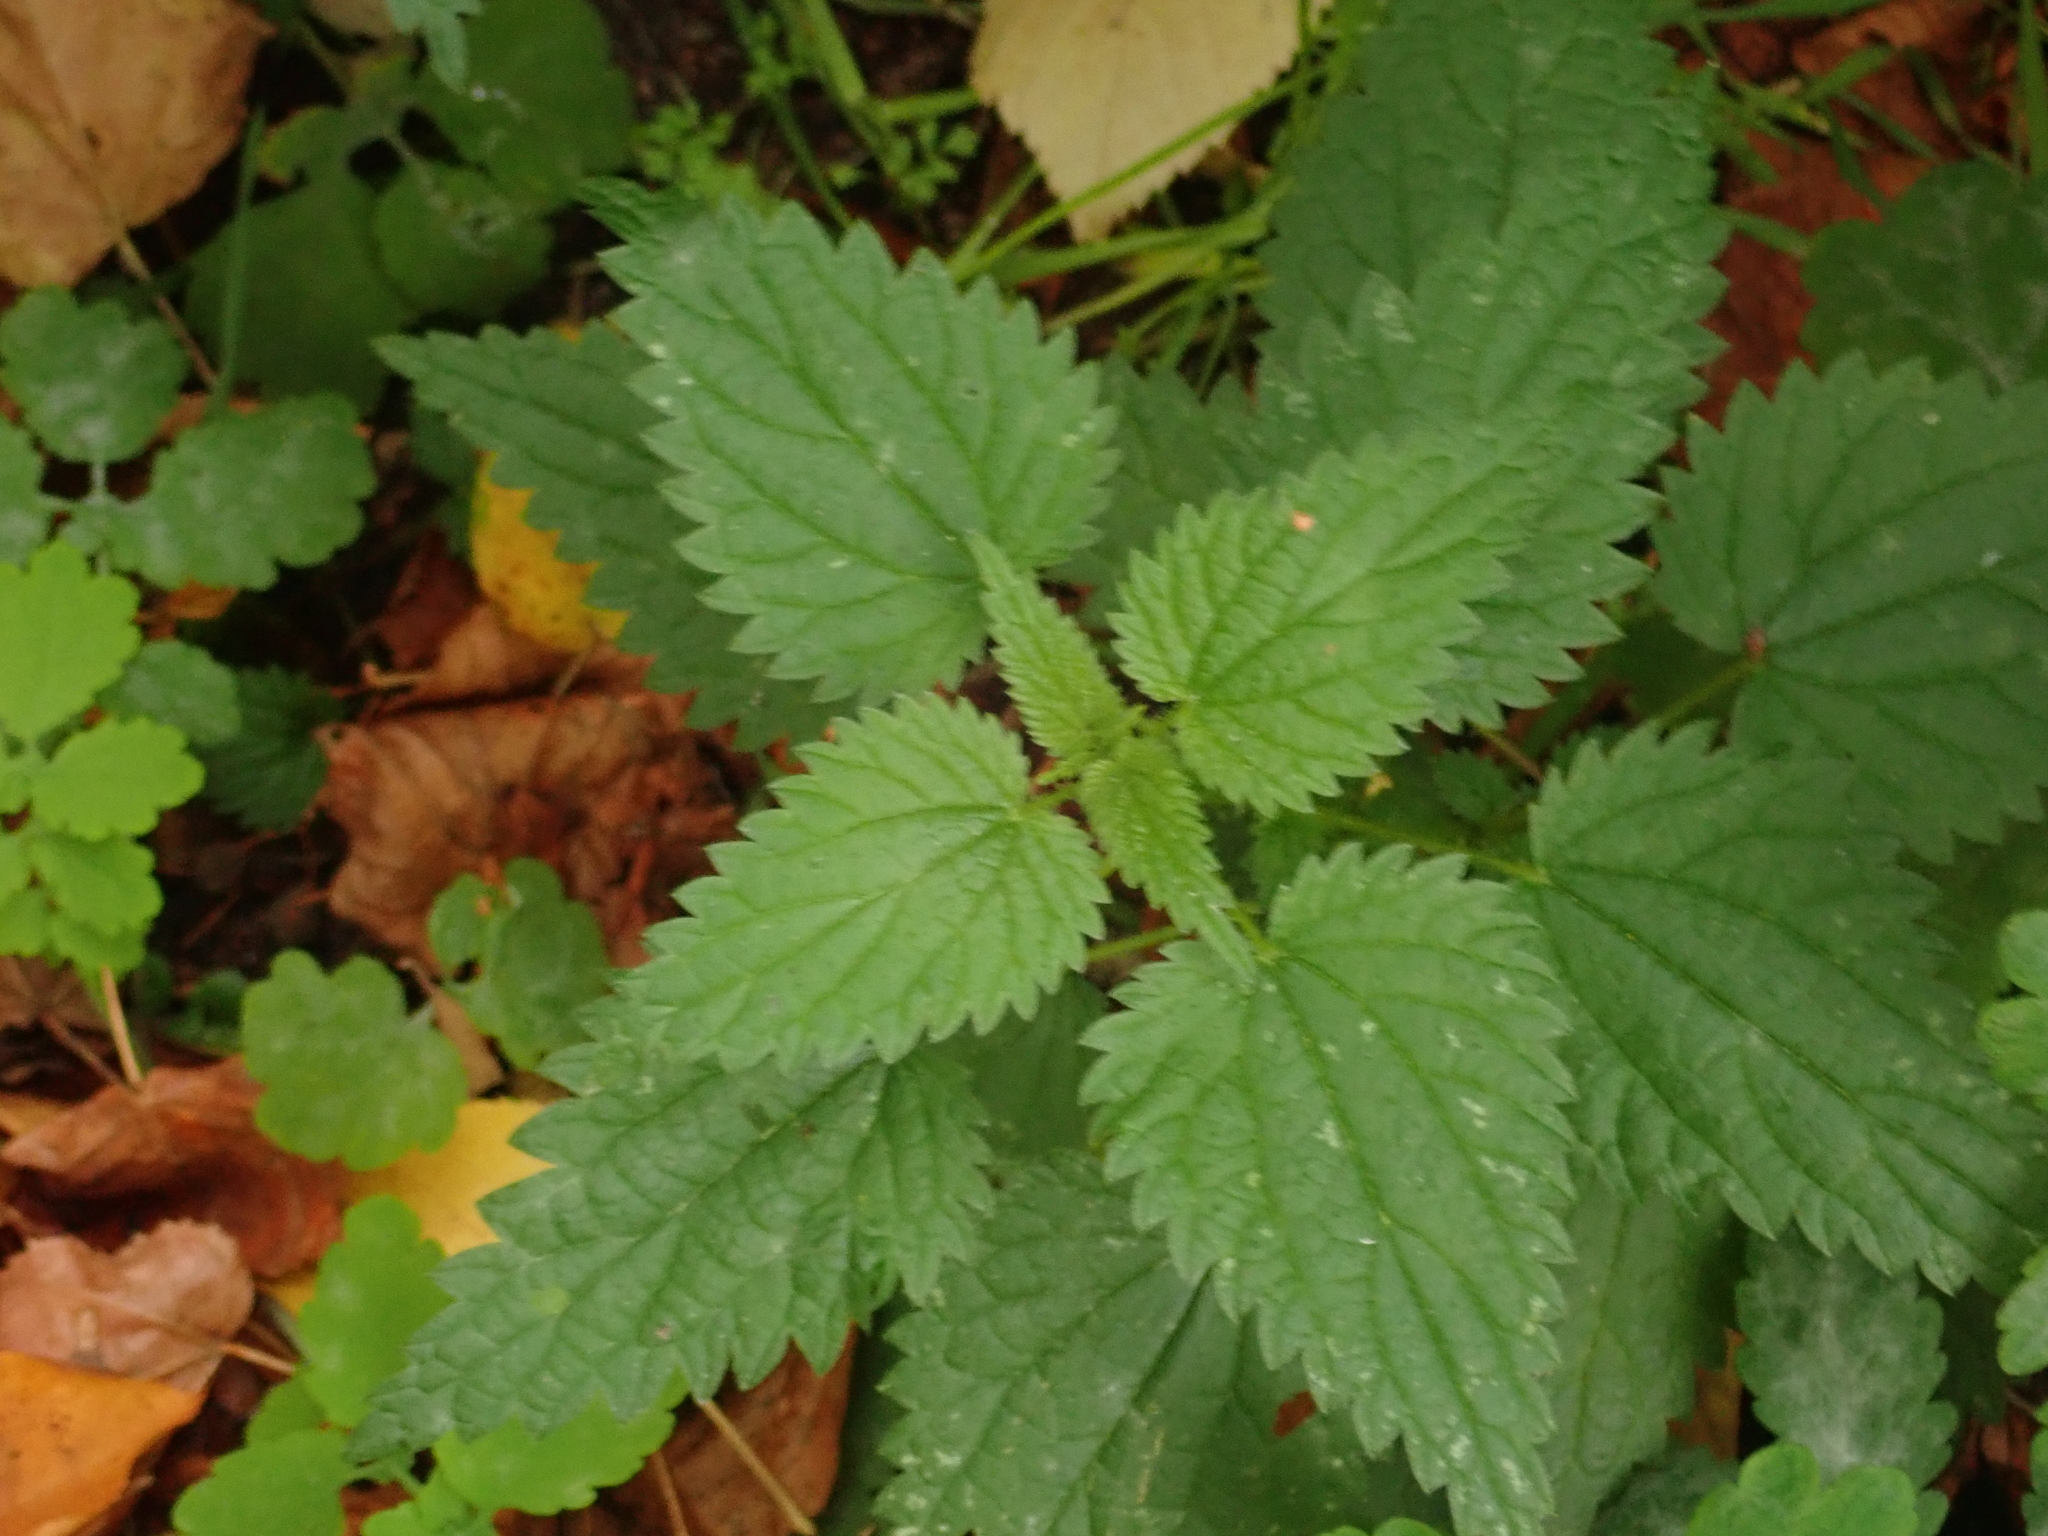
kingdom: Plantae
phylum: Tracheophyta
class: Magnoliopsida
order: Rosales
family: Urticaceae
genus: Urtica
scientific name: Urtica dioica
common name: Common nettle
